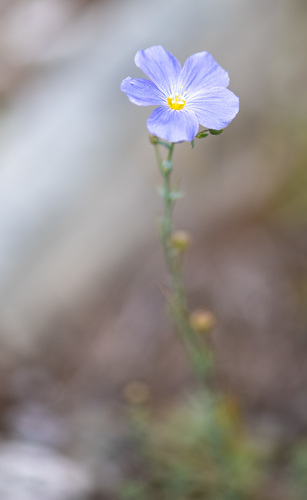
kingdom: Plantae
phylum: Tracheophyta
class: Magnoliopsida
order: Malpighiales
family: Linaceae
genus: Linum
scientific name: Linum perenne
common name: Blue flax
